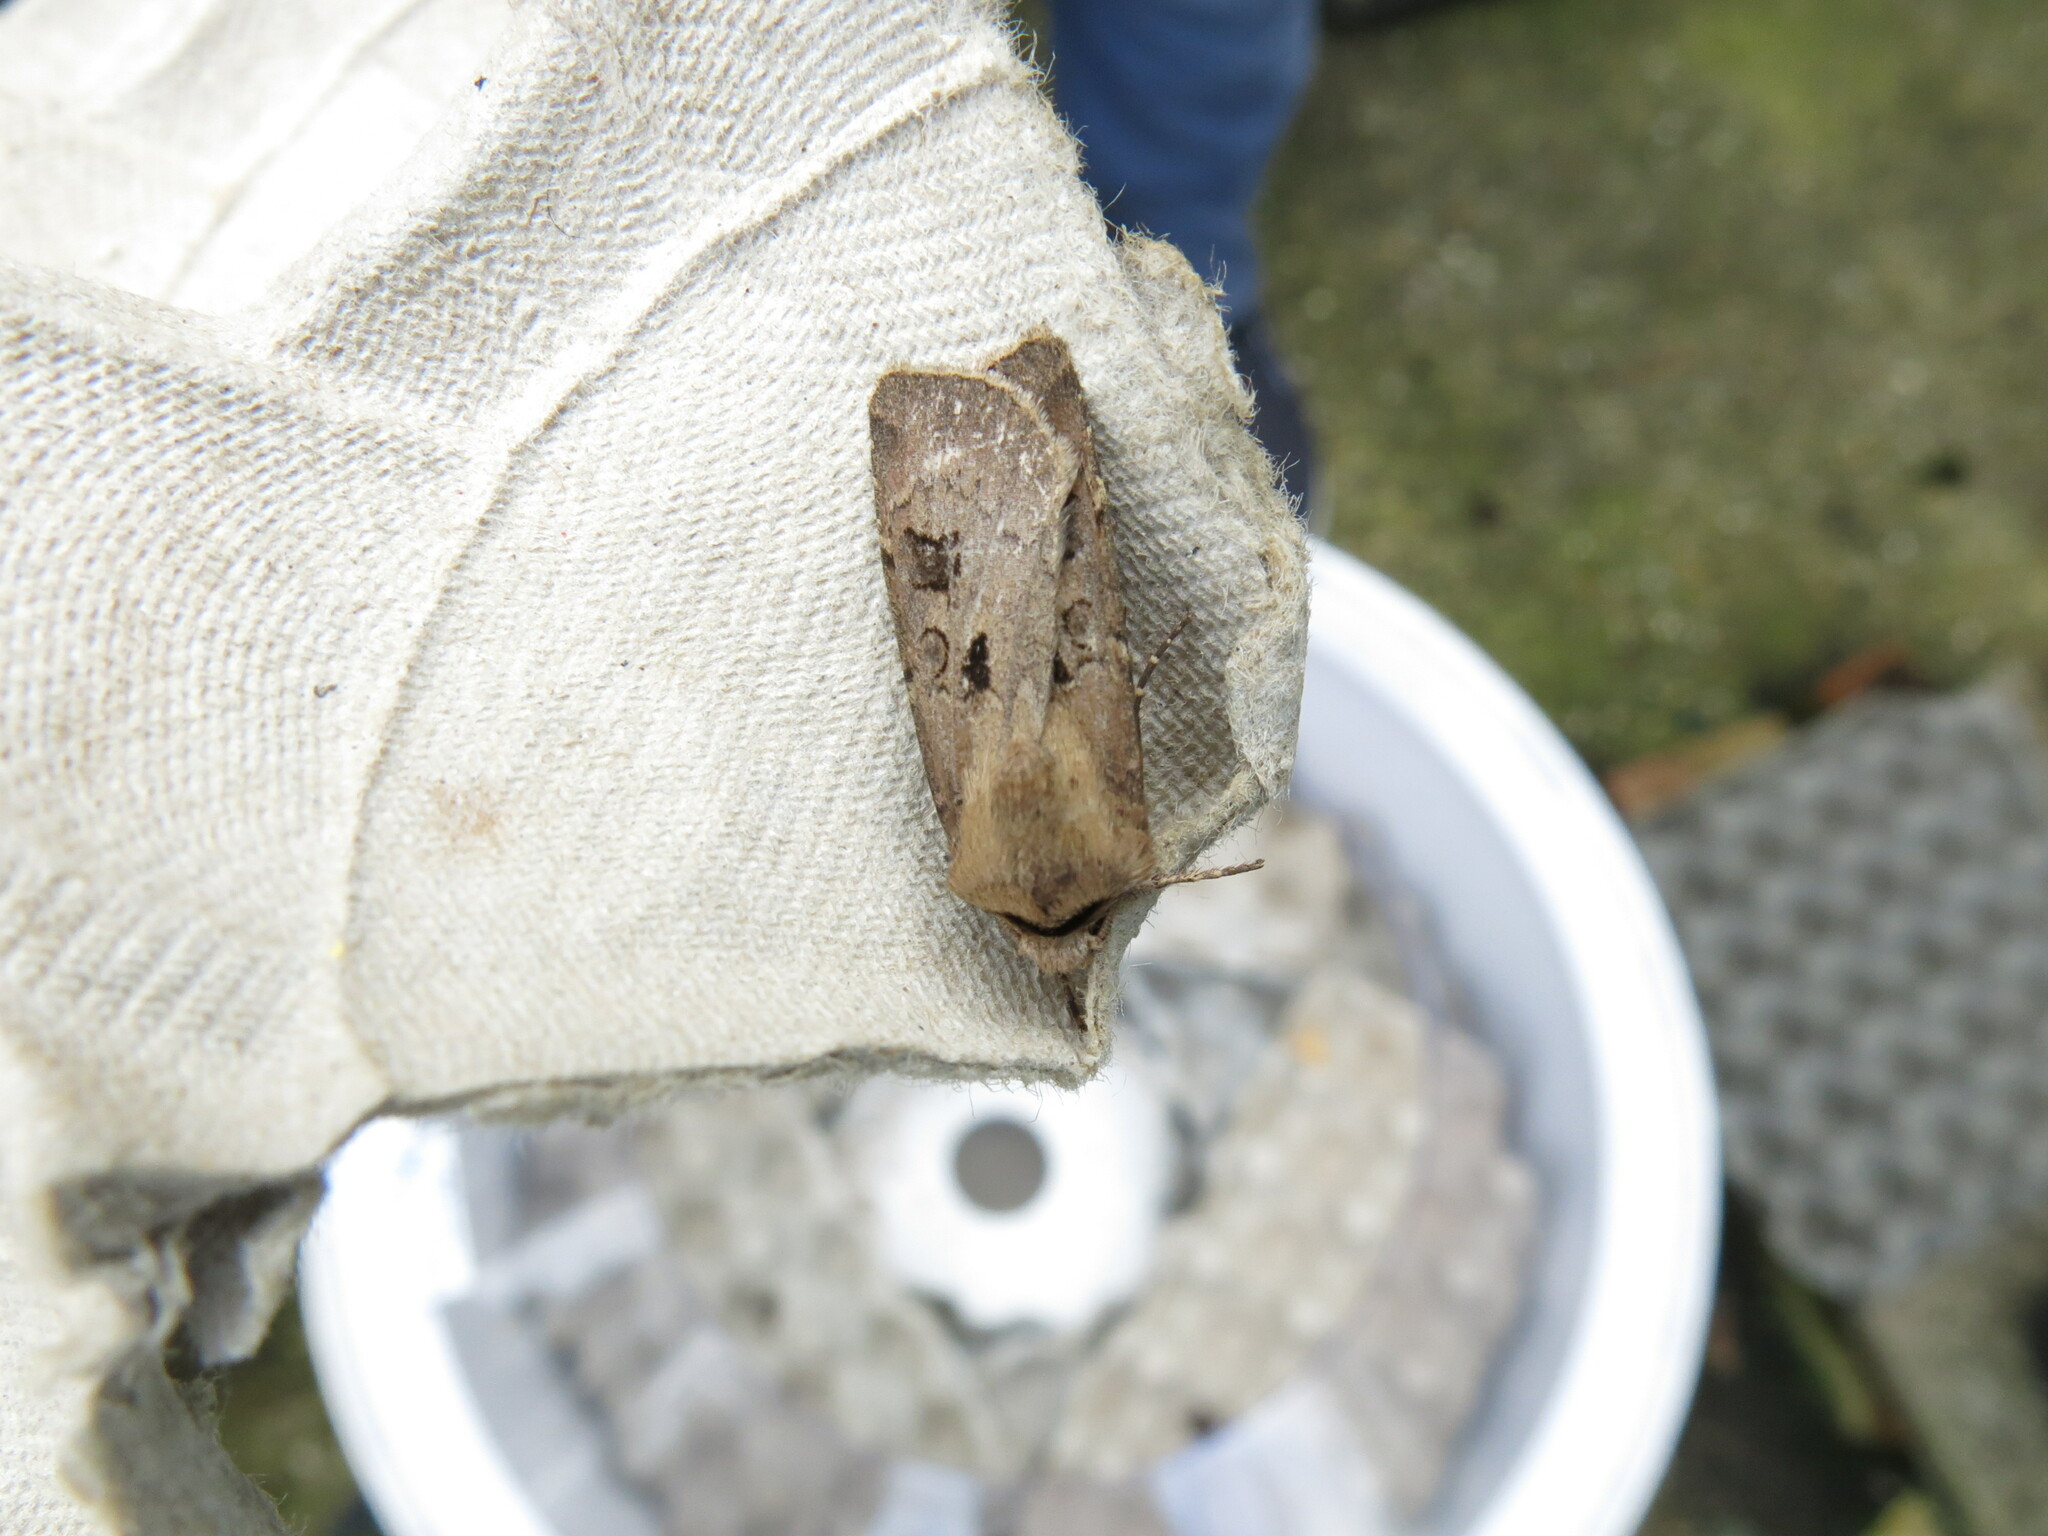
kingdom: Animalia
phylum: Arthropoda
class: Insecta
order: Lepidoptera
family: Noctuidae
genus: Agrotis
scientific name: Agrotis exclamationis
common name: Heart and dart
